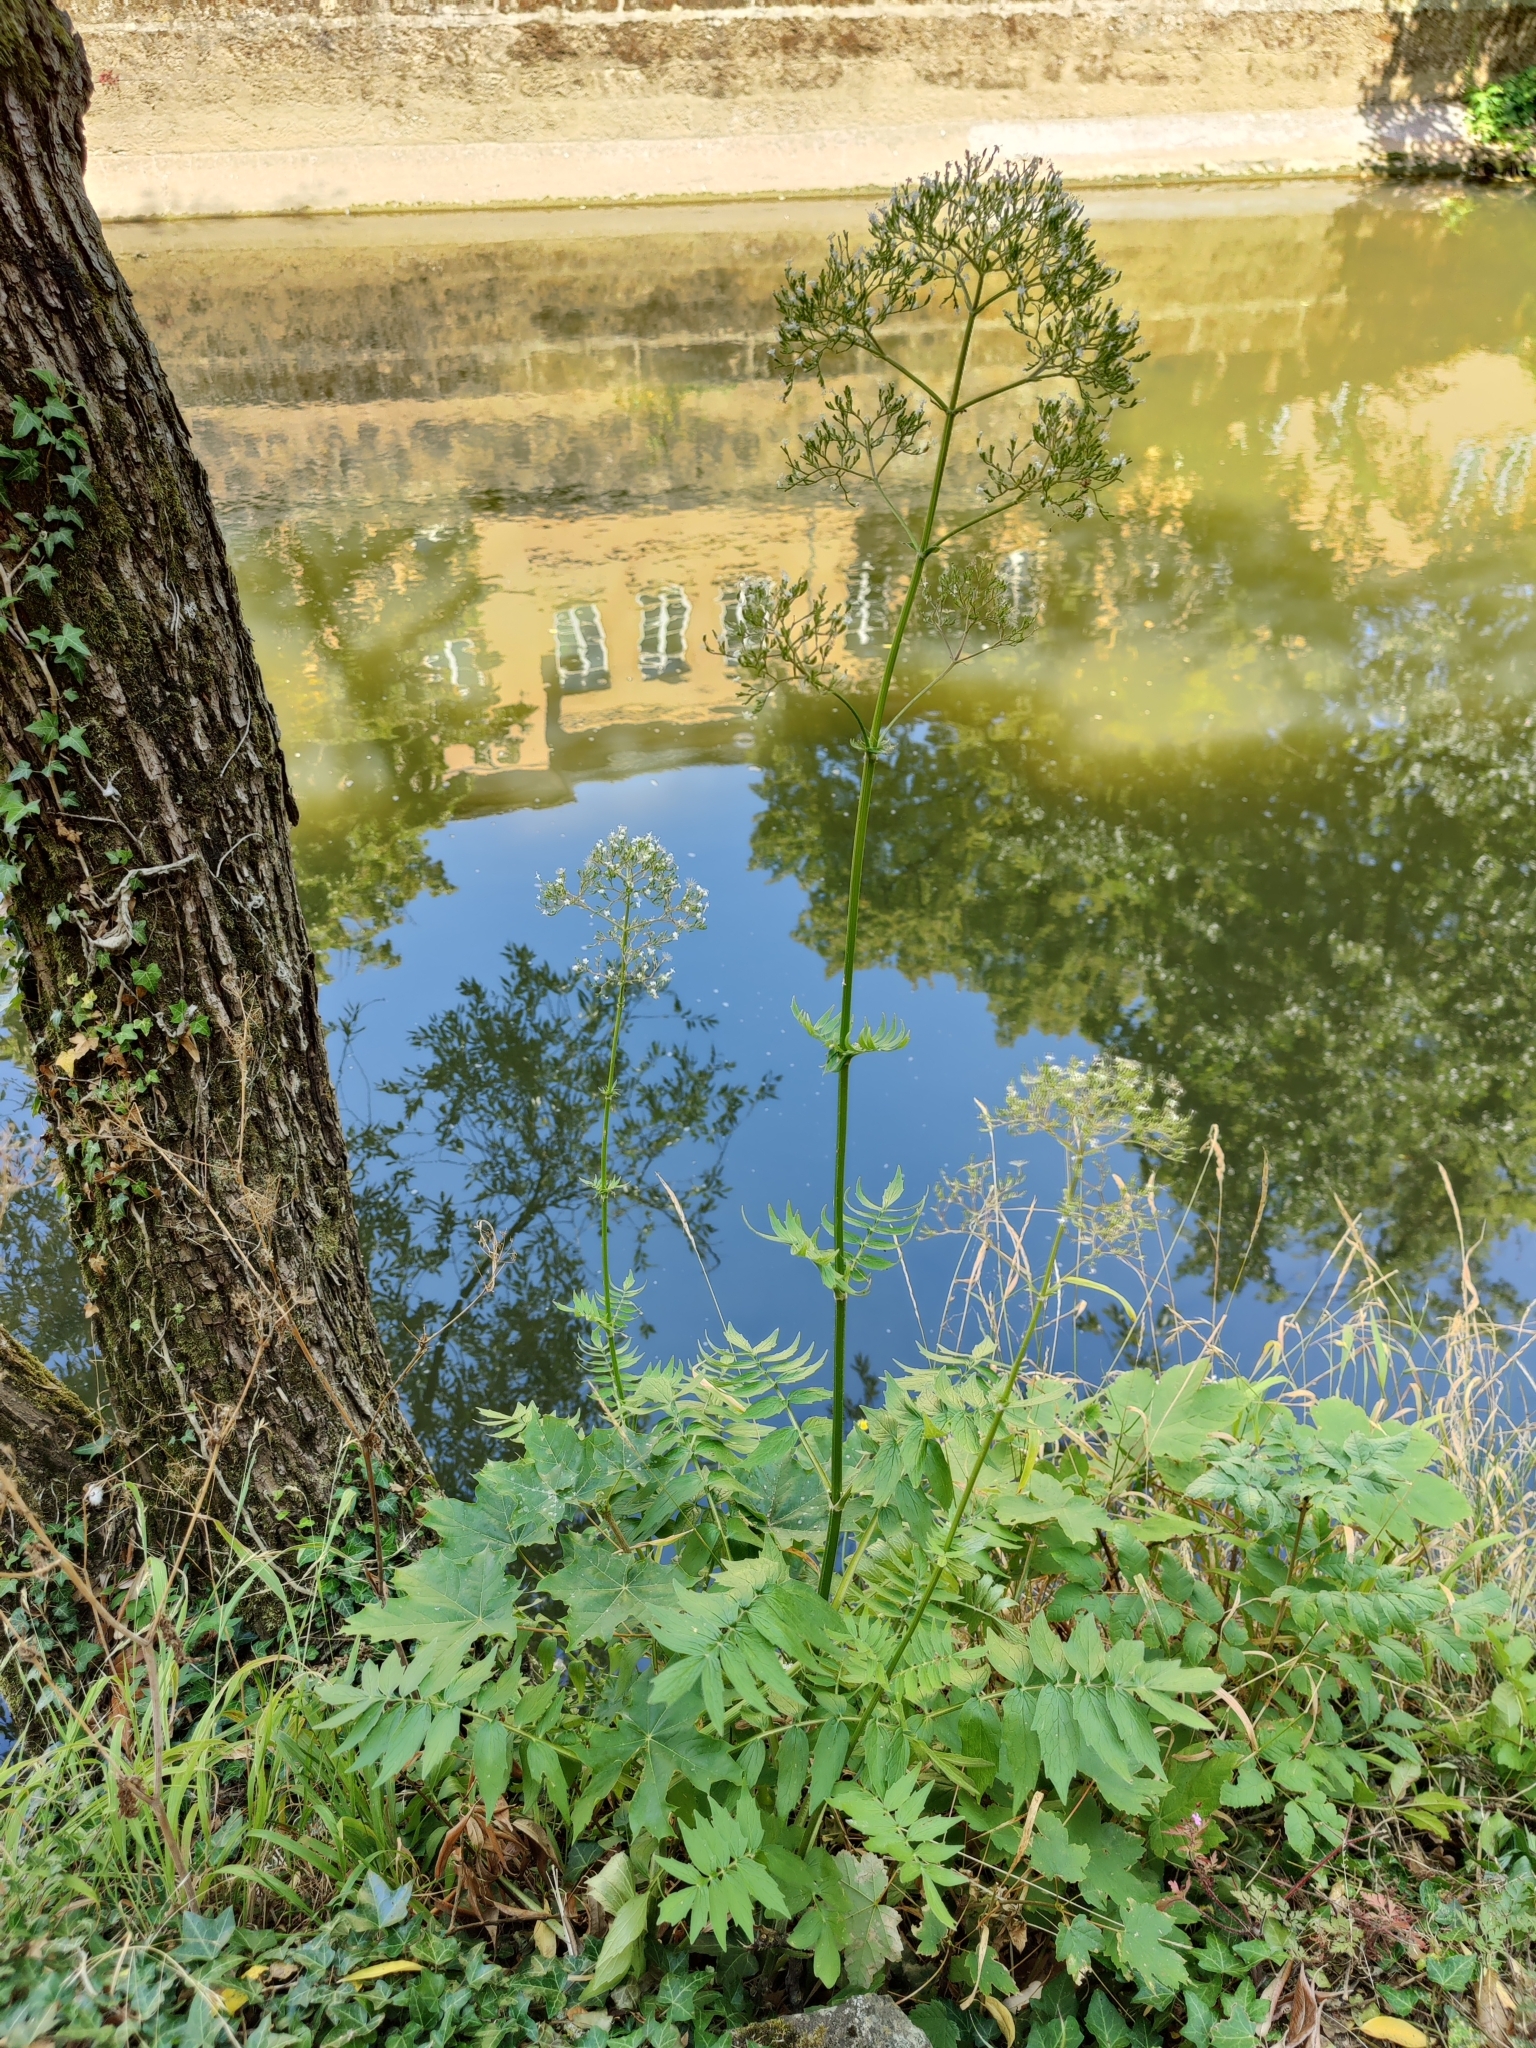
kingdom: Plantae
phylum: Tracheophyta
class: Magnoliopsida
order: Dipsacales
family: Caprifoliaceae
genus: Valeriana
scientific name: Valeriana officinalis
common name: Common valerian
